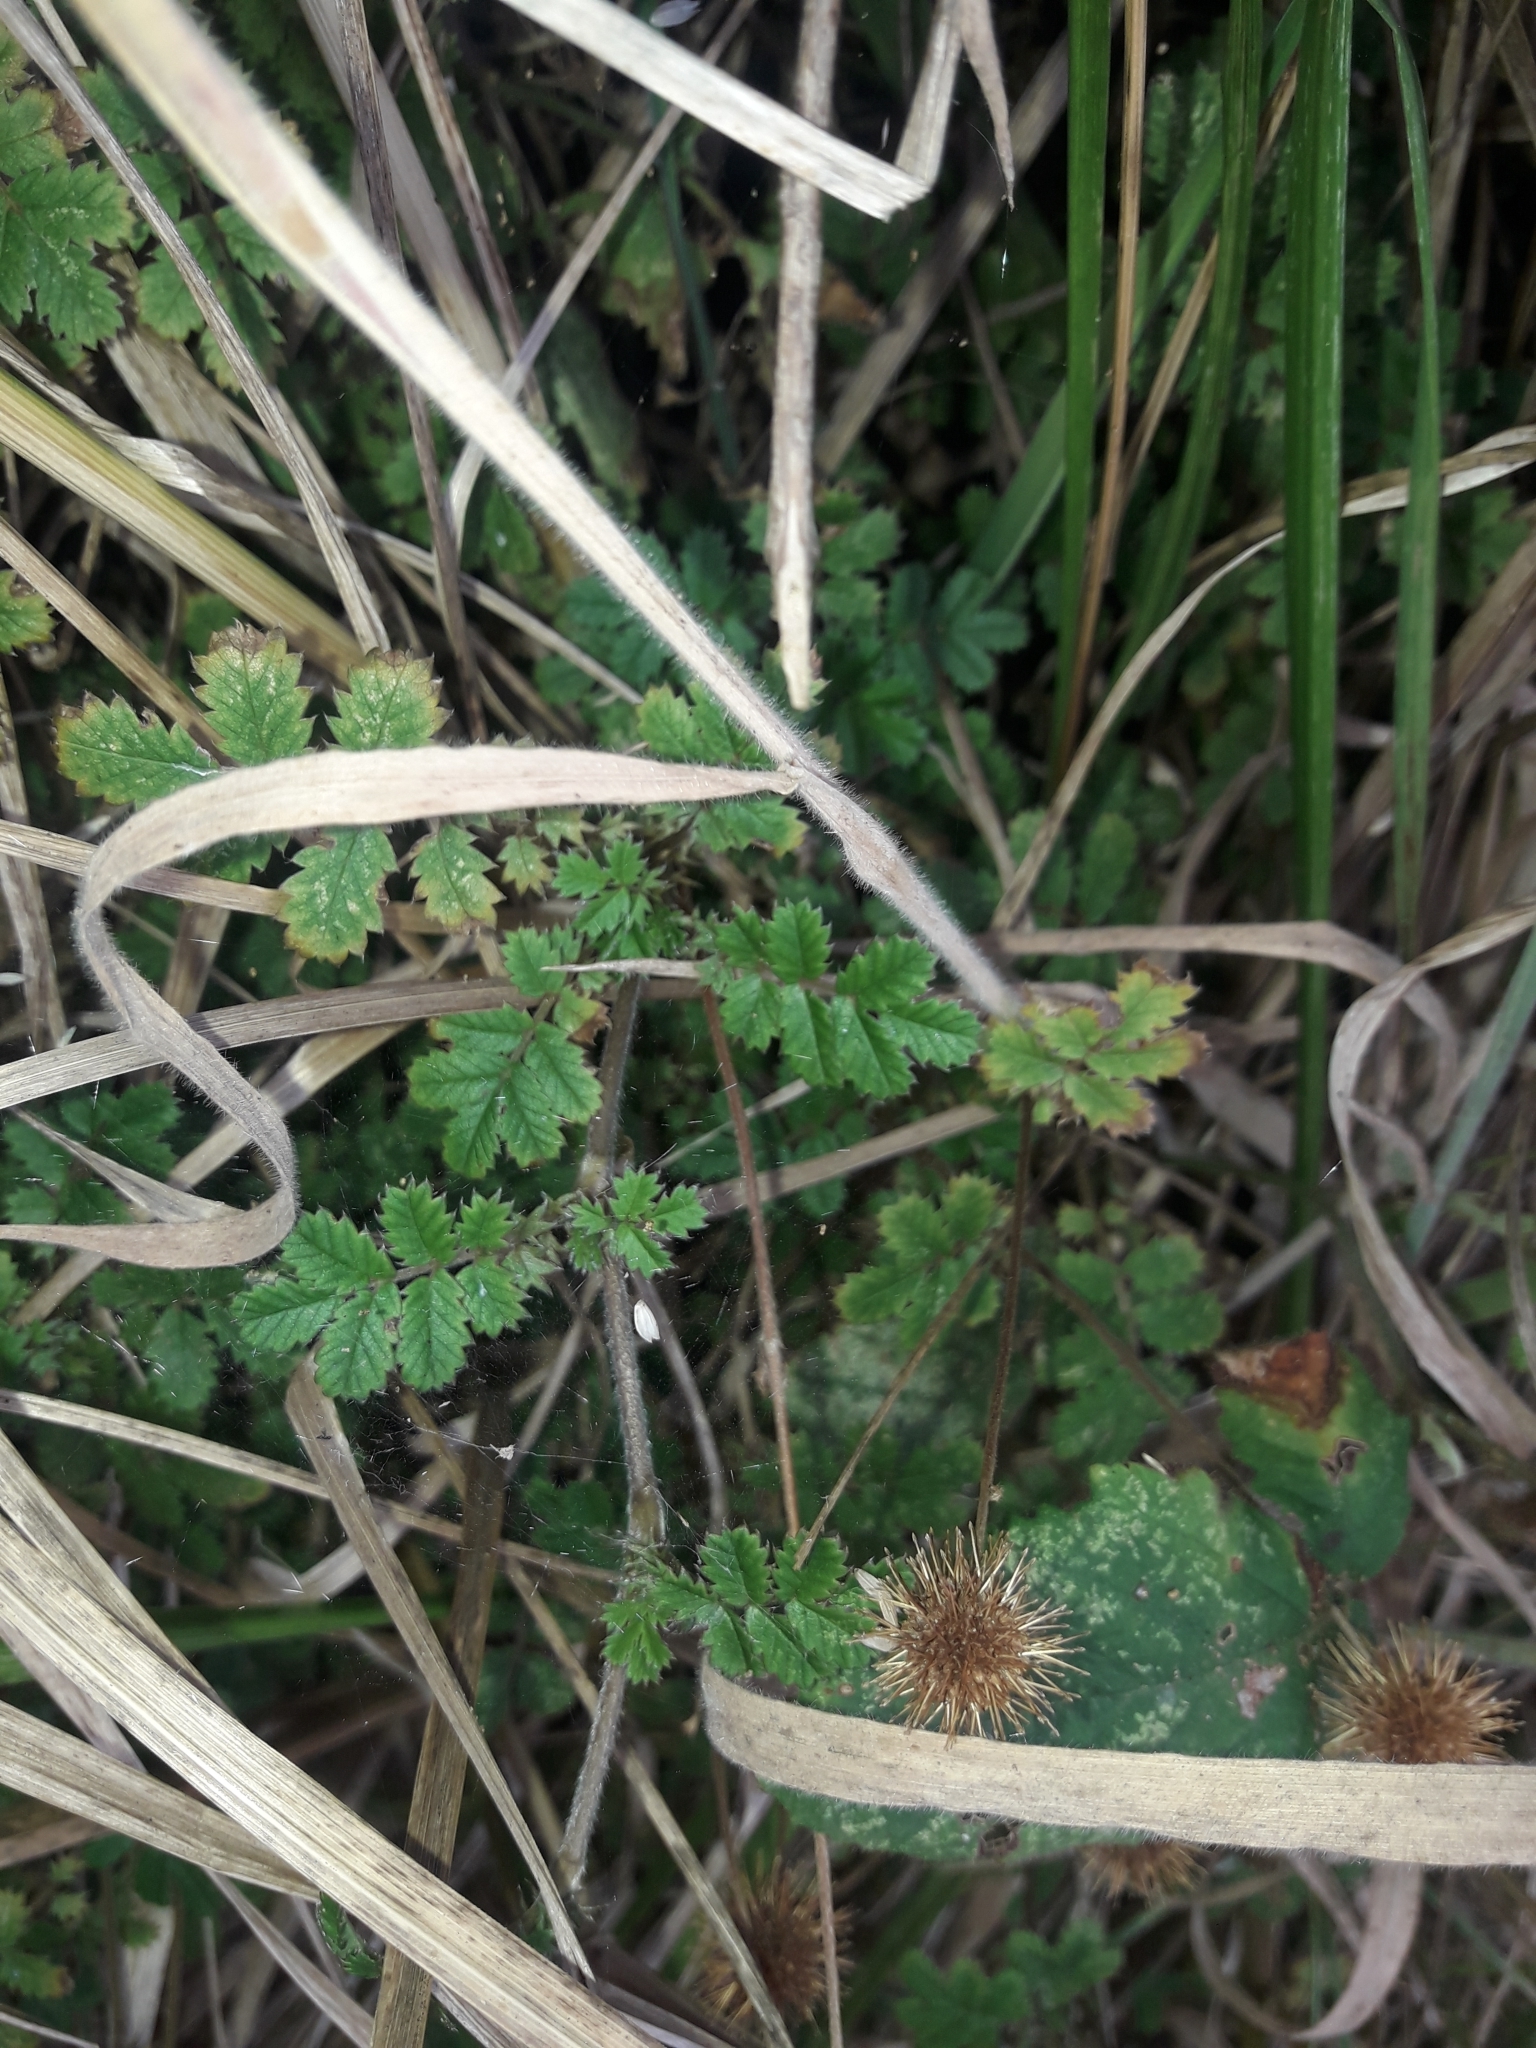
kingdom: Plantae
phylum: Tracheophyta
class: Magnoliopsida
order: Rosales
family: Rosaceae
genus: Acaena
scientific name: Acaena anserinifolia
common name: Bronze pirri-pirri-bur
